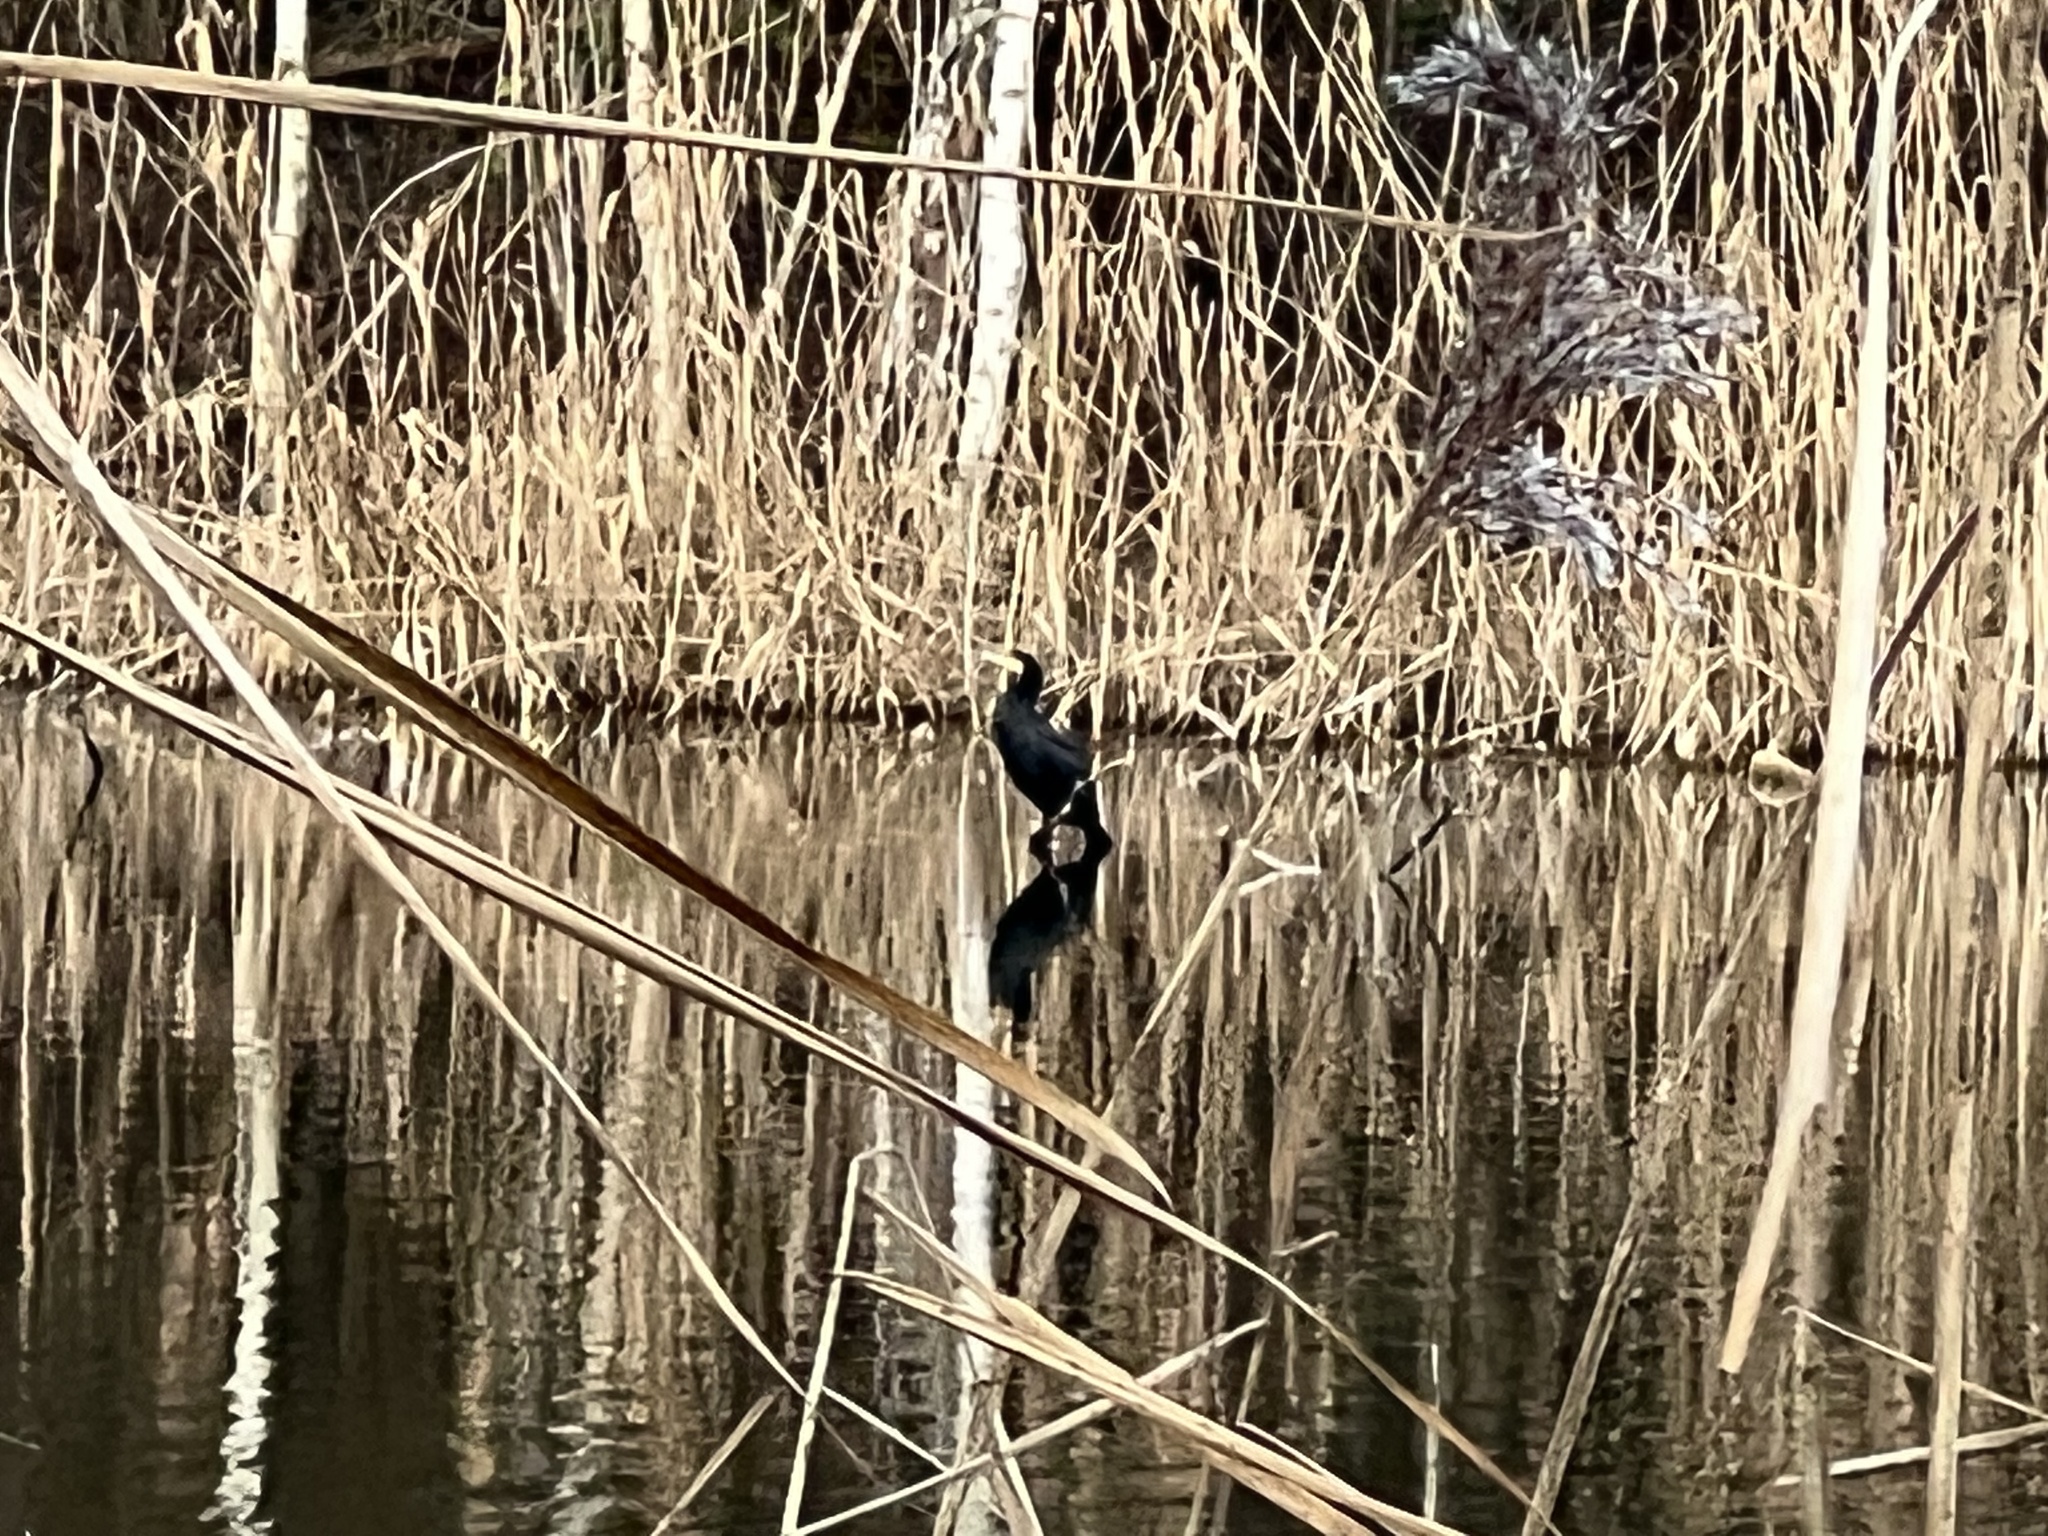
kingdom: Animalia
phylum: Chordata
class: Aves
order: Suliformes
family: Phalacrocoracidae
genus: Phalacrocorax
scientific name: Phalacrocorax carbo
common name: Great cormorant
